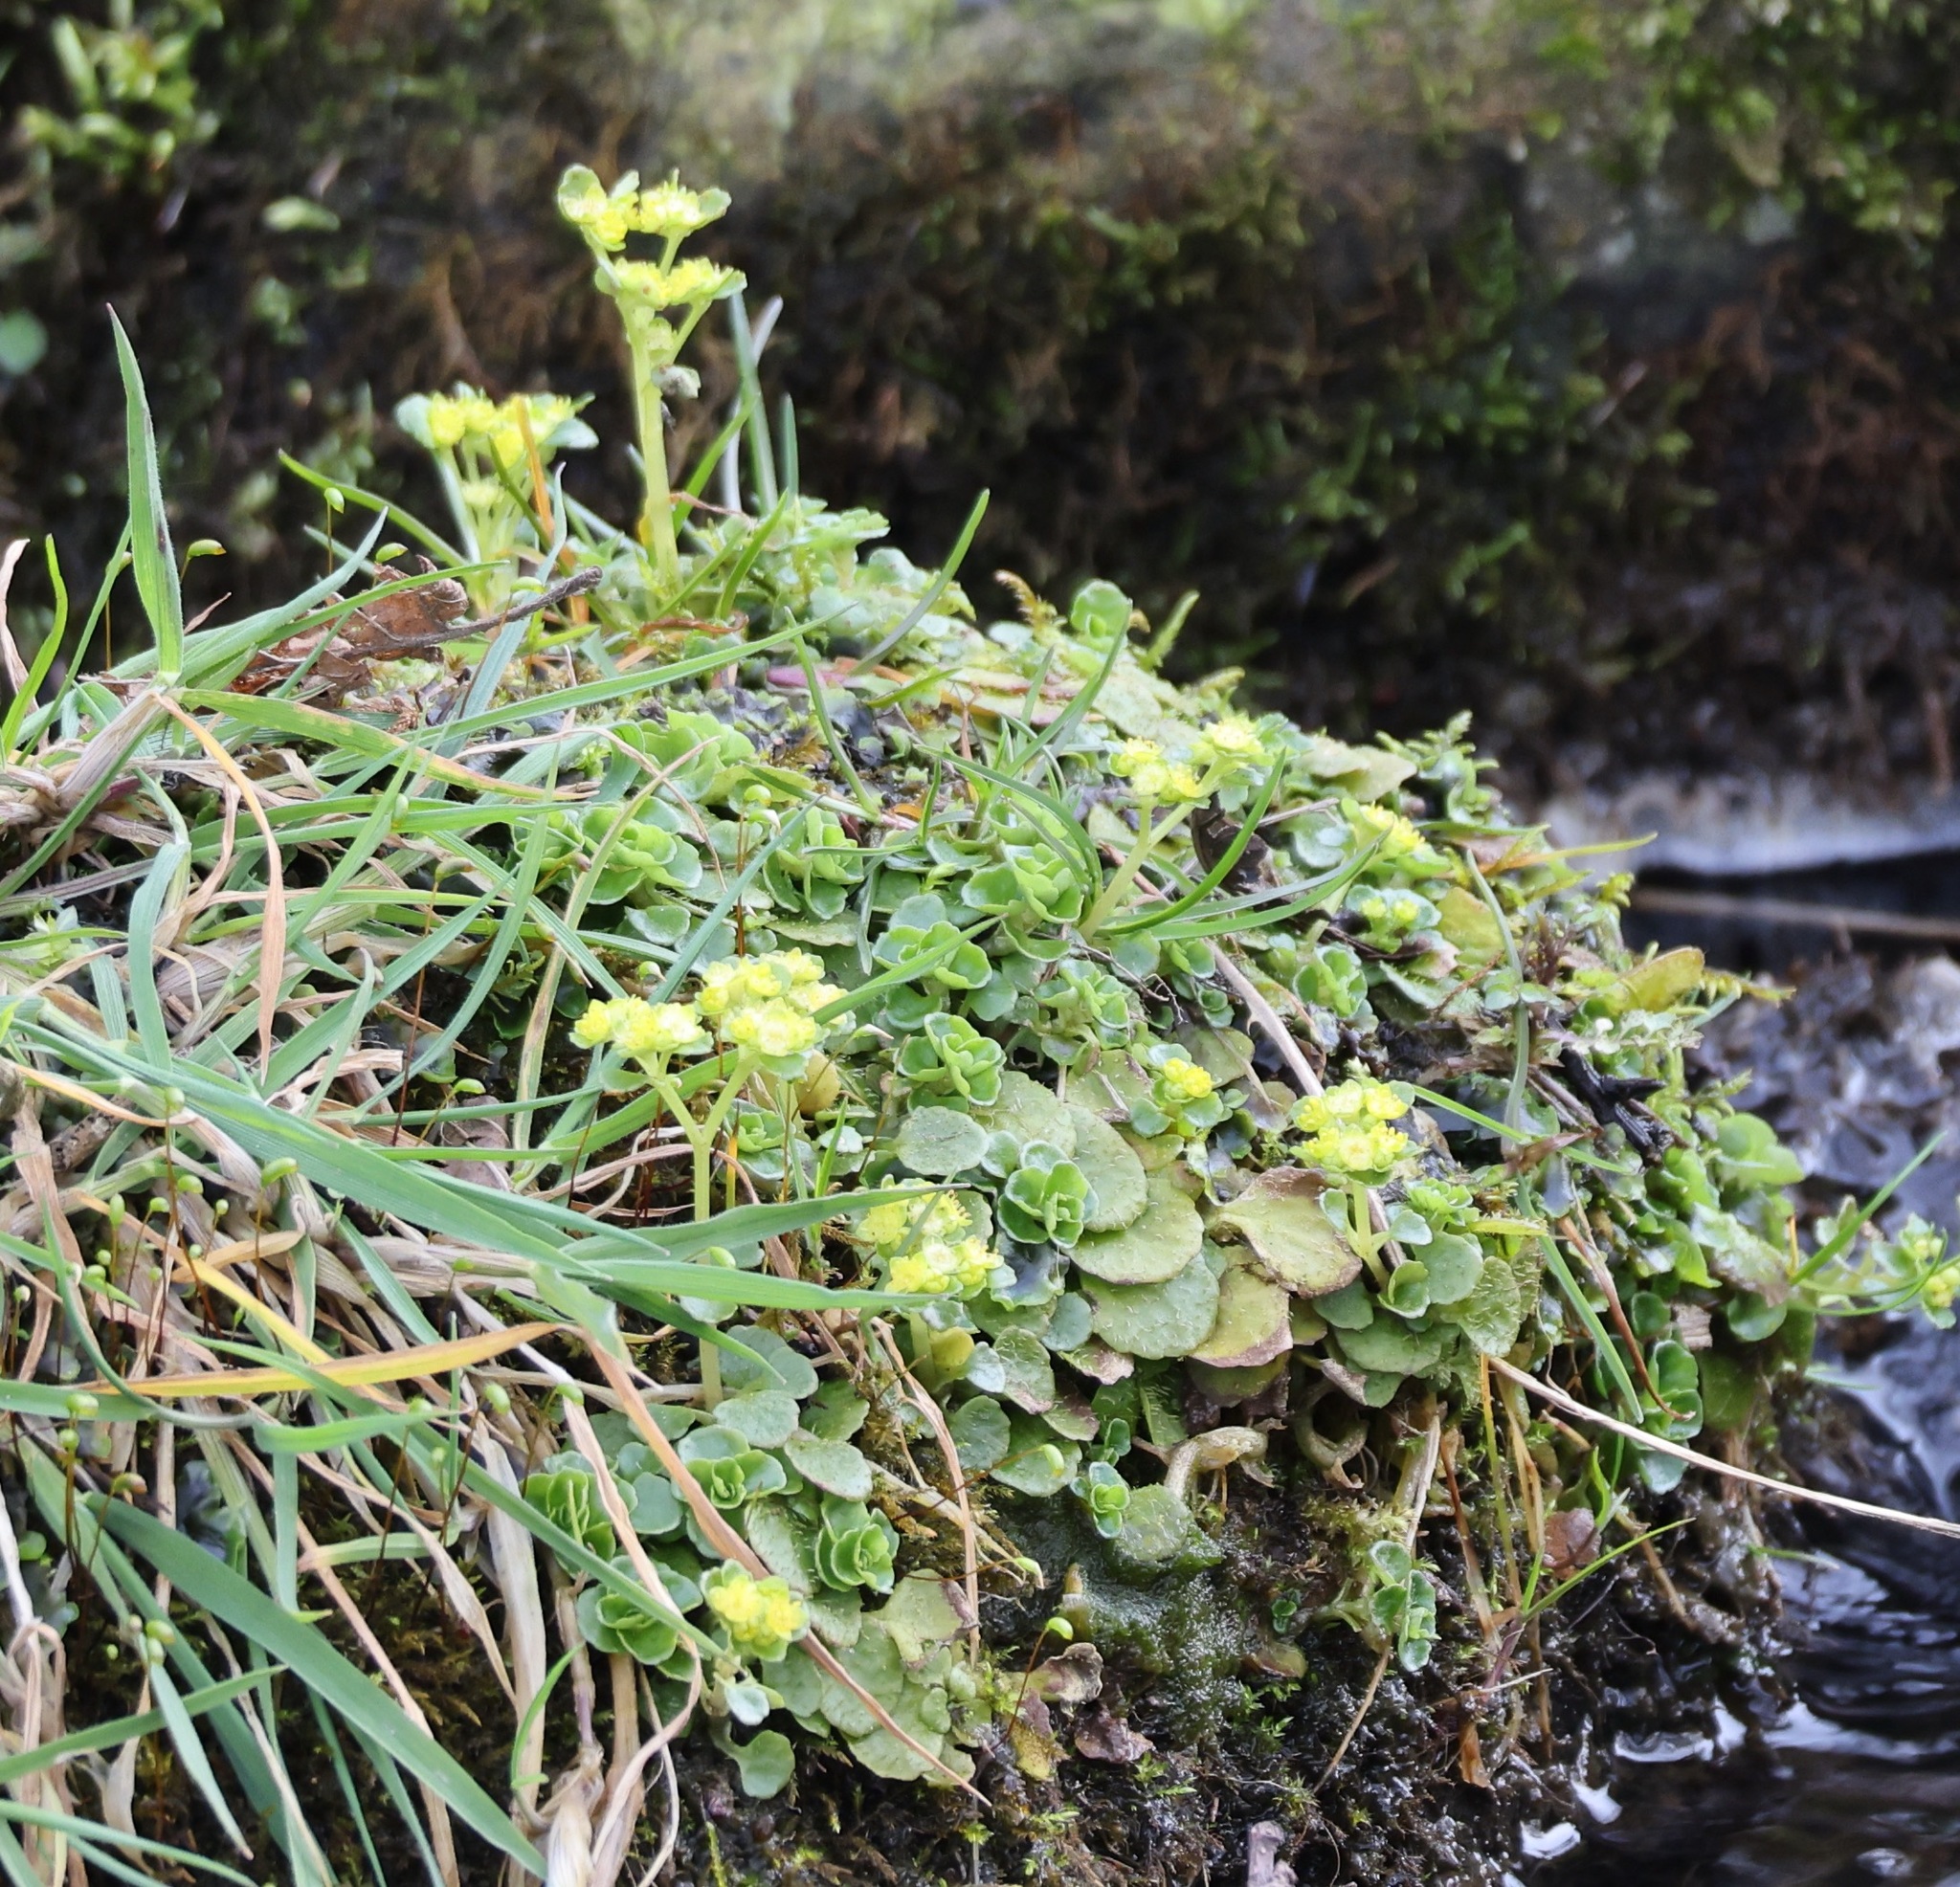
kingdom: Plantae
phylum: Tracheophyta
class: Magnoliopsida
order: Saxifragales
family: Saxifragaceae
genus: Chrysosplenium
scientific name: Chrysosplenium oppositifolium
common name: Opposite-leaved golden-saxifrage
